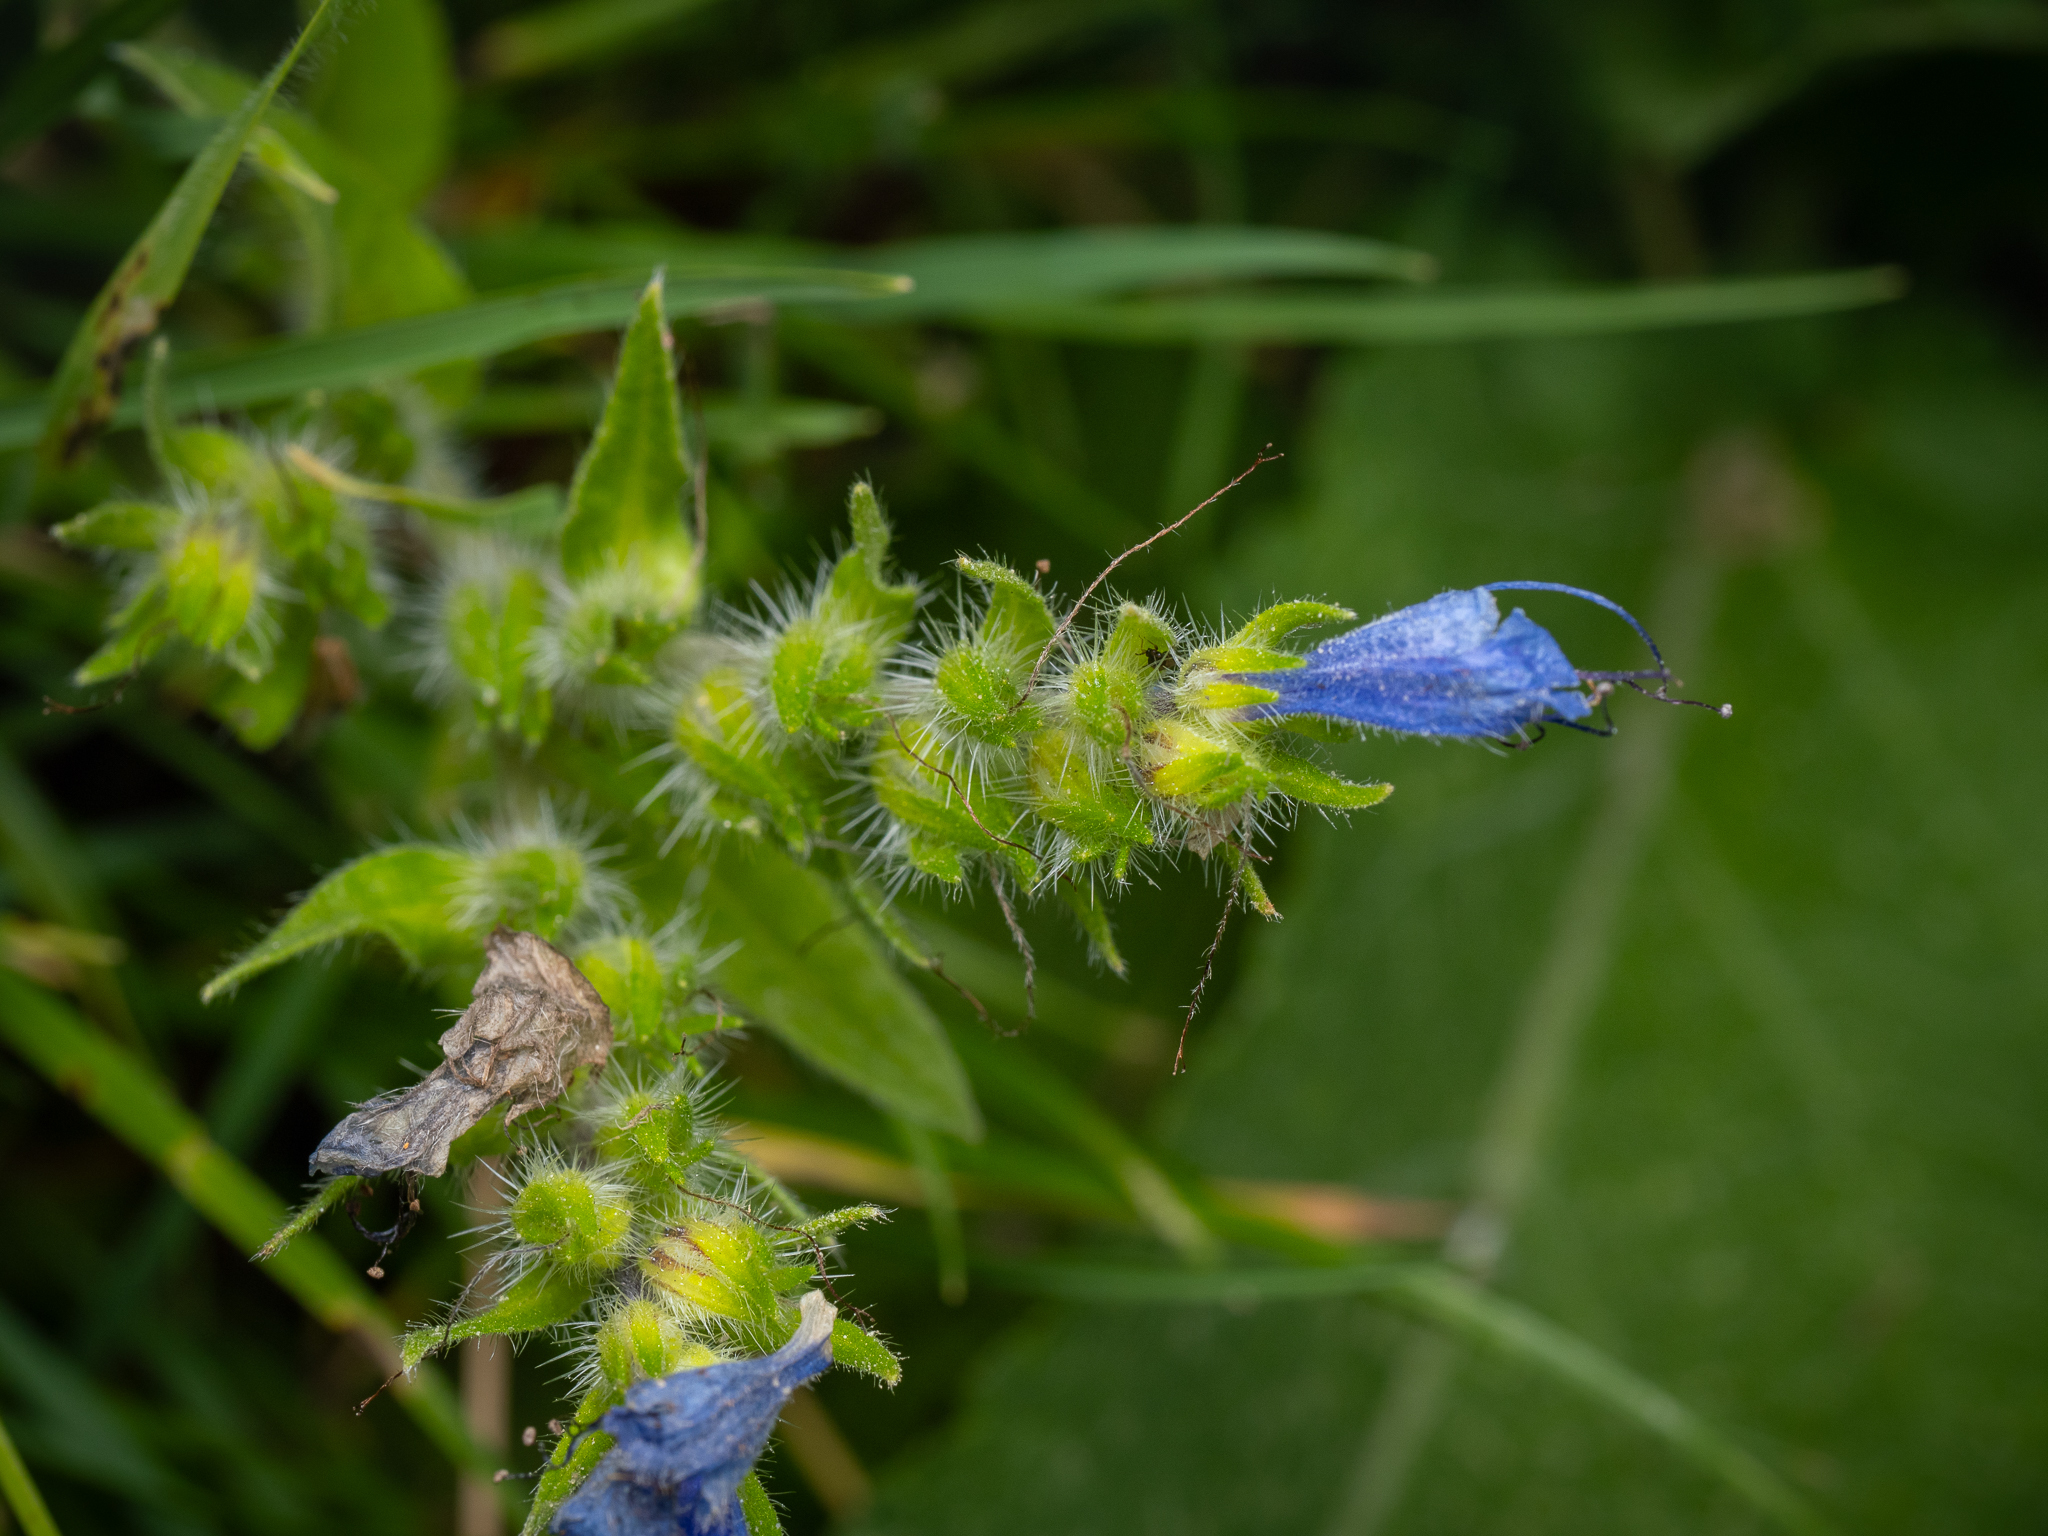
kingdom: Plantae
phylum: Tracheophyta
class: Magnoliopsida
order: Boraginales
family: Boraginaceae
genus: Echium
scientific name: Echium vulgare
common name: Common viper's bugloss
